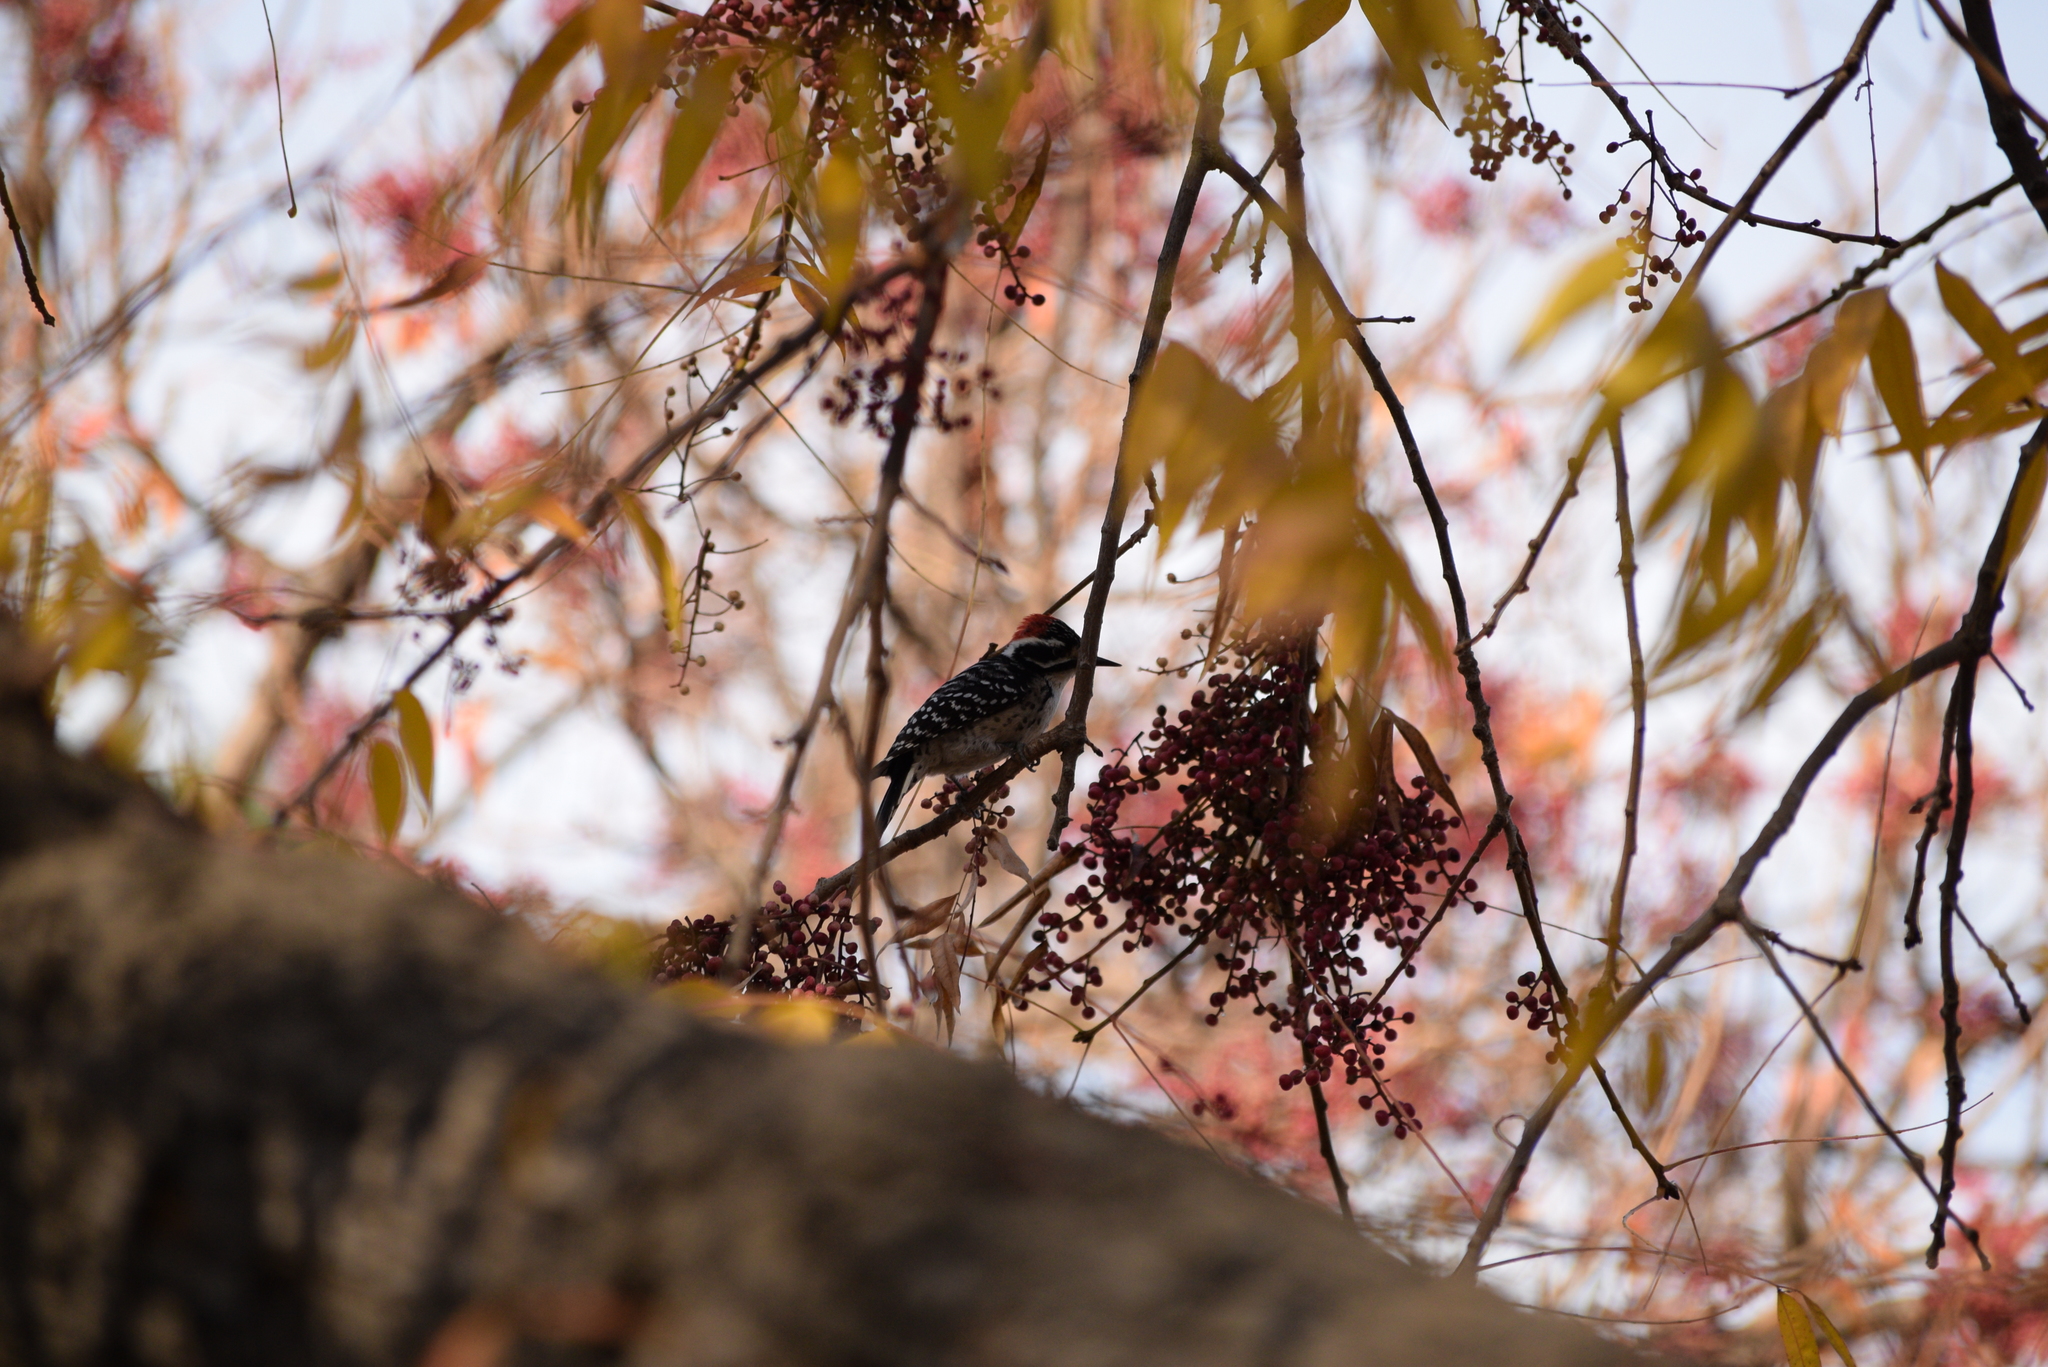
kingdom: Animalia
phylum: Chordata
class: Aves
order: Piciformes
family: Picidae
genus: Dryobates
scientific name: Dryobates nuttallii
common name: Nuttall's woodpecker
